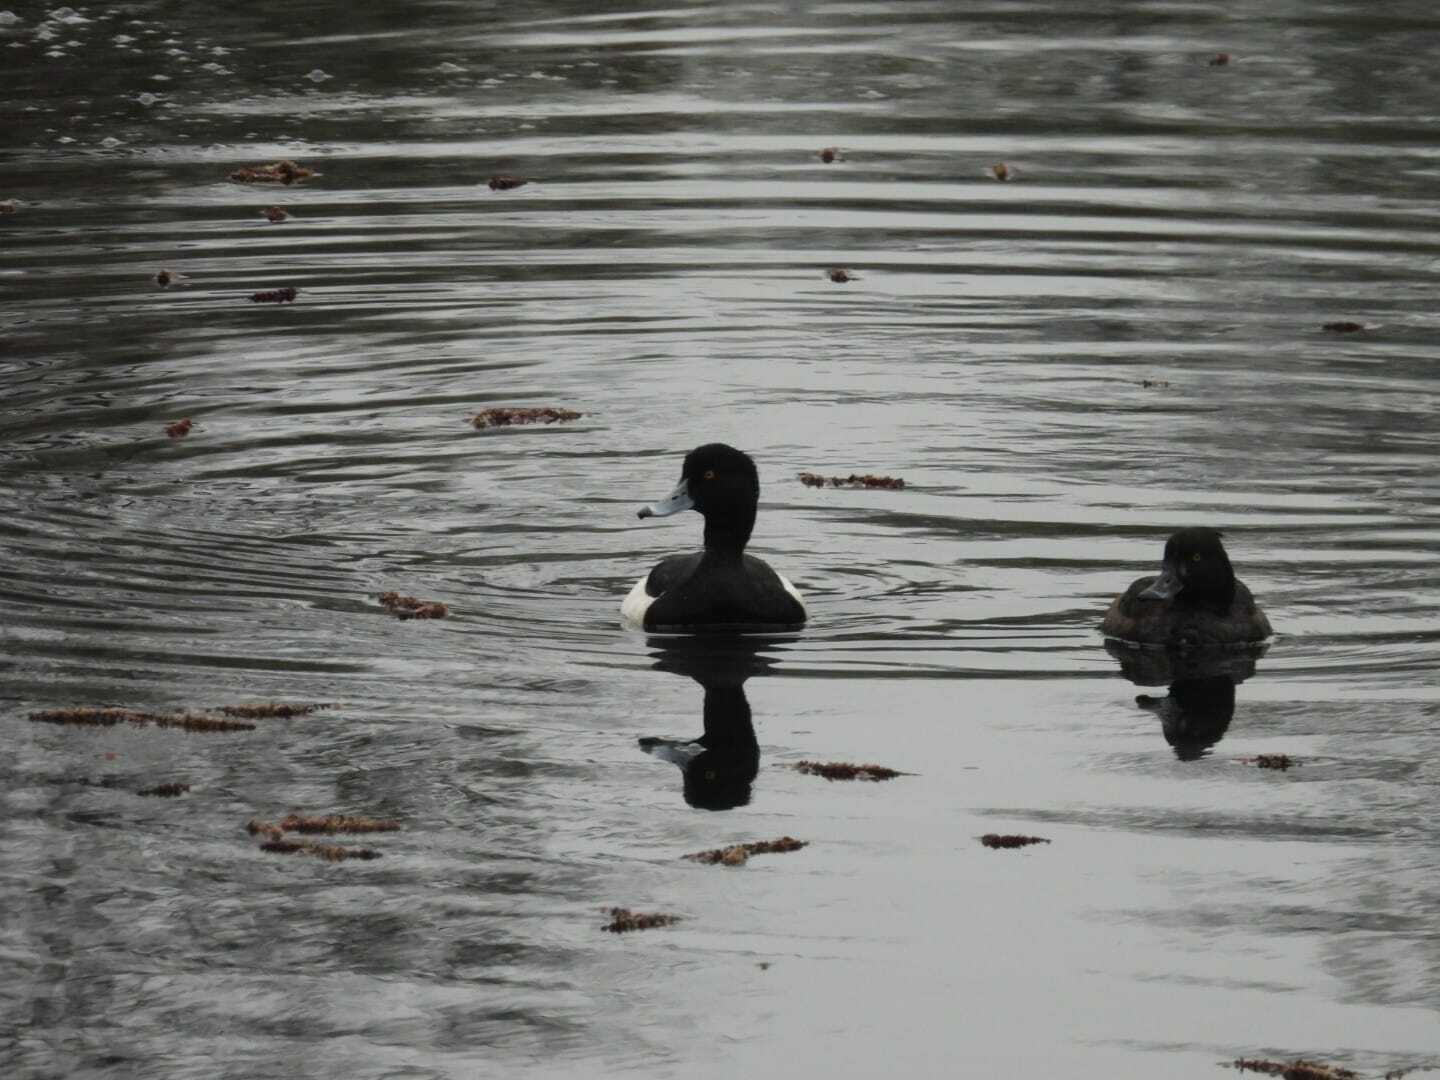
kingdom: Animalia
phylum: Chordata
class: Aves
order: Anseriformes
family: Anatidae
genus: Aythya
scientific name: Aythya fuligula
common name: Tufted duck
